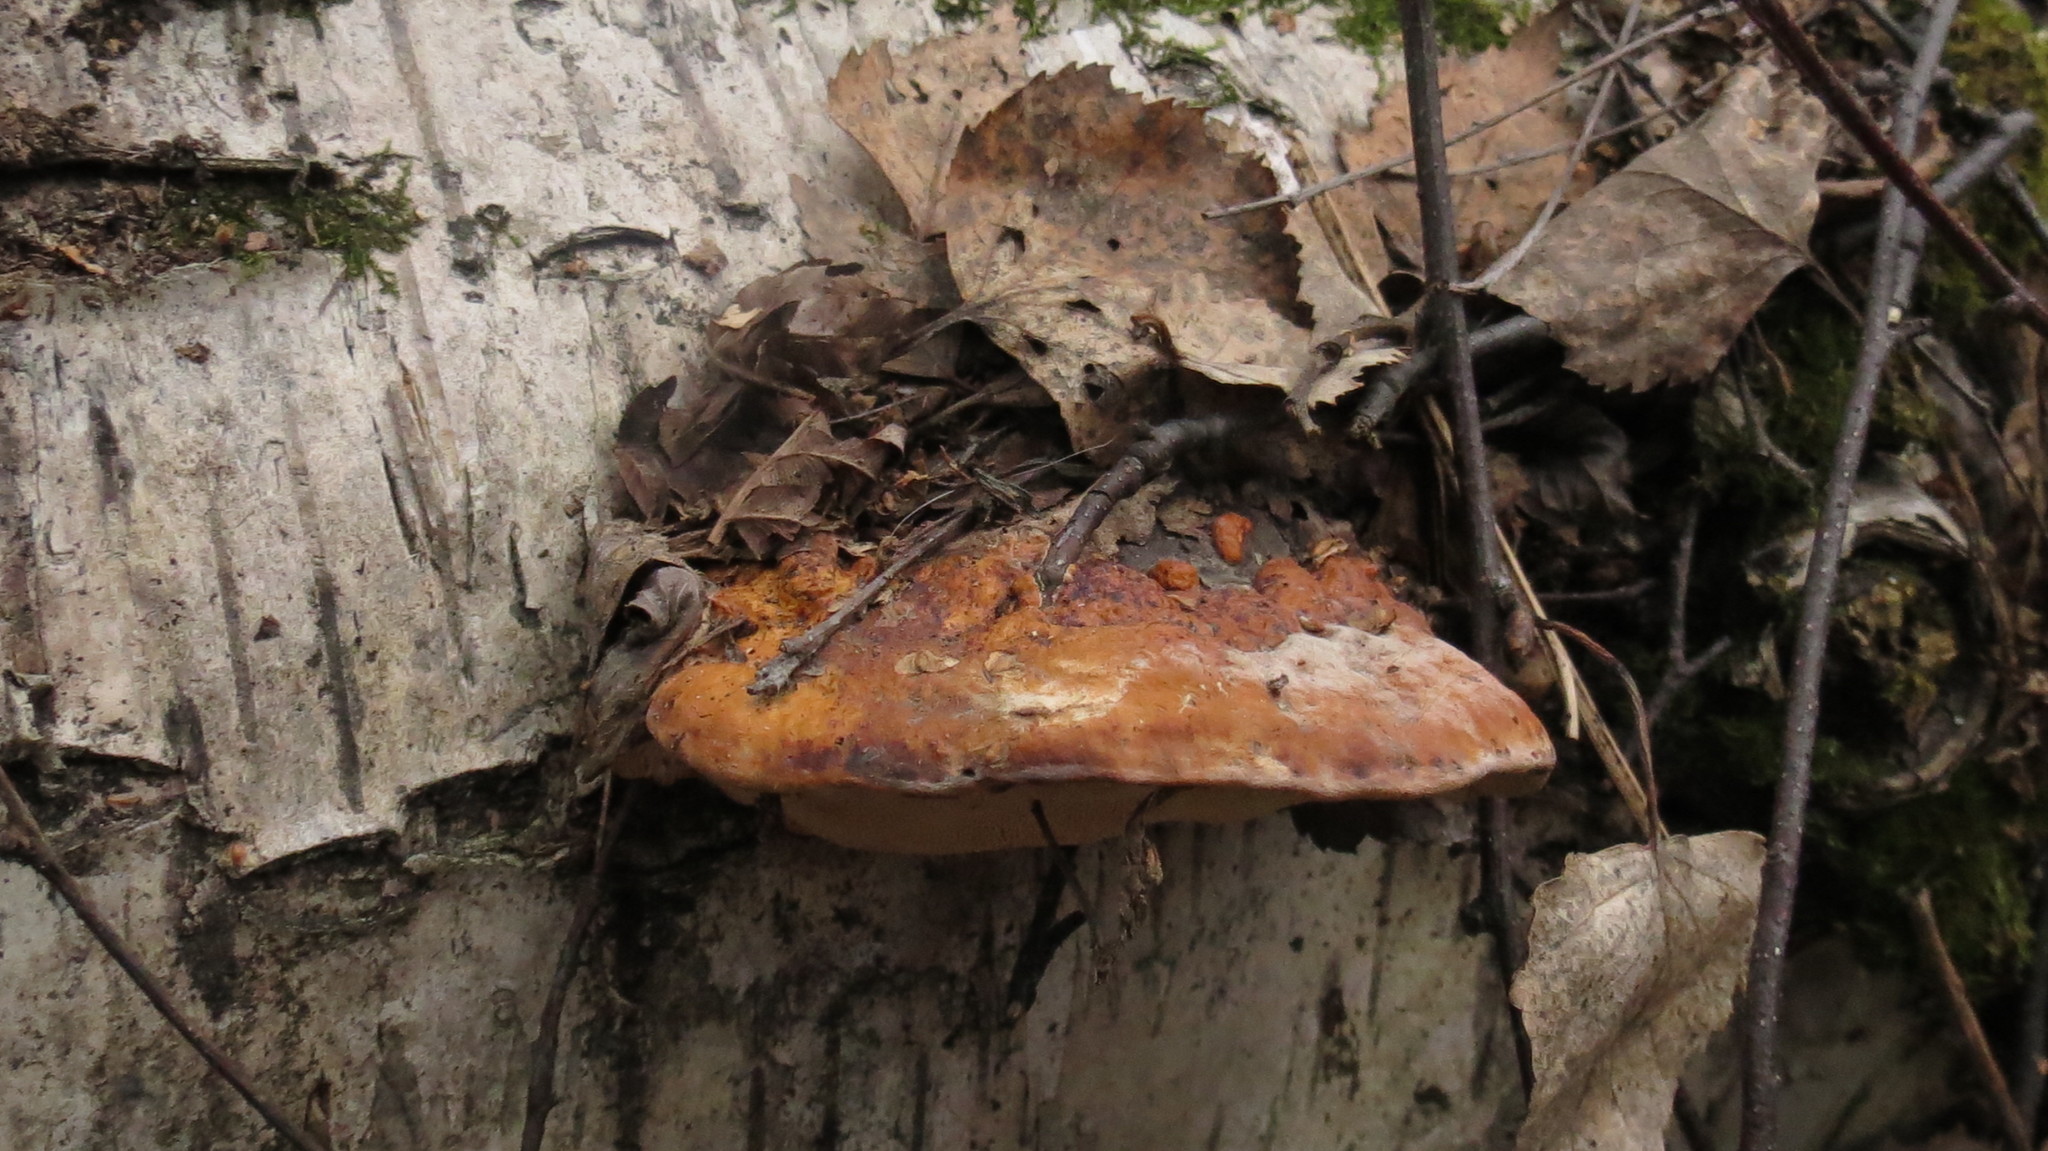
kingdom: Fungi
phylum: Basidiomycota
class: Agaricomycetes
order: Polyporales
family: Fomitopsidaceae
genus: Fomitopsis
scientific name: Fomitopsis pinicola
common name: Red-belted bracket
